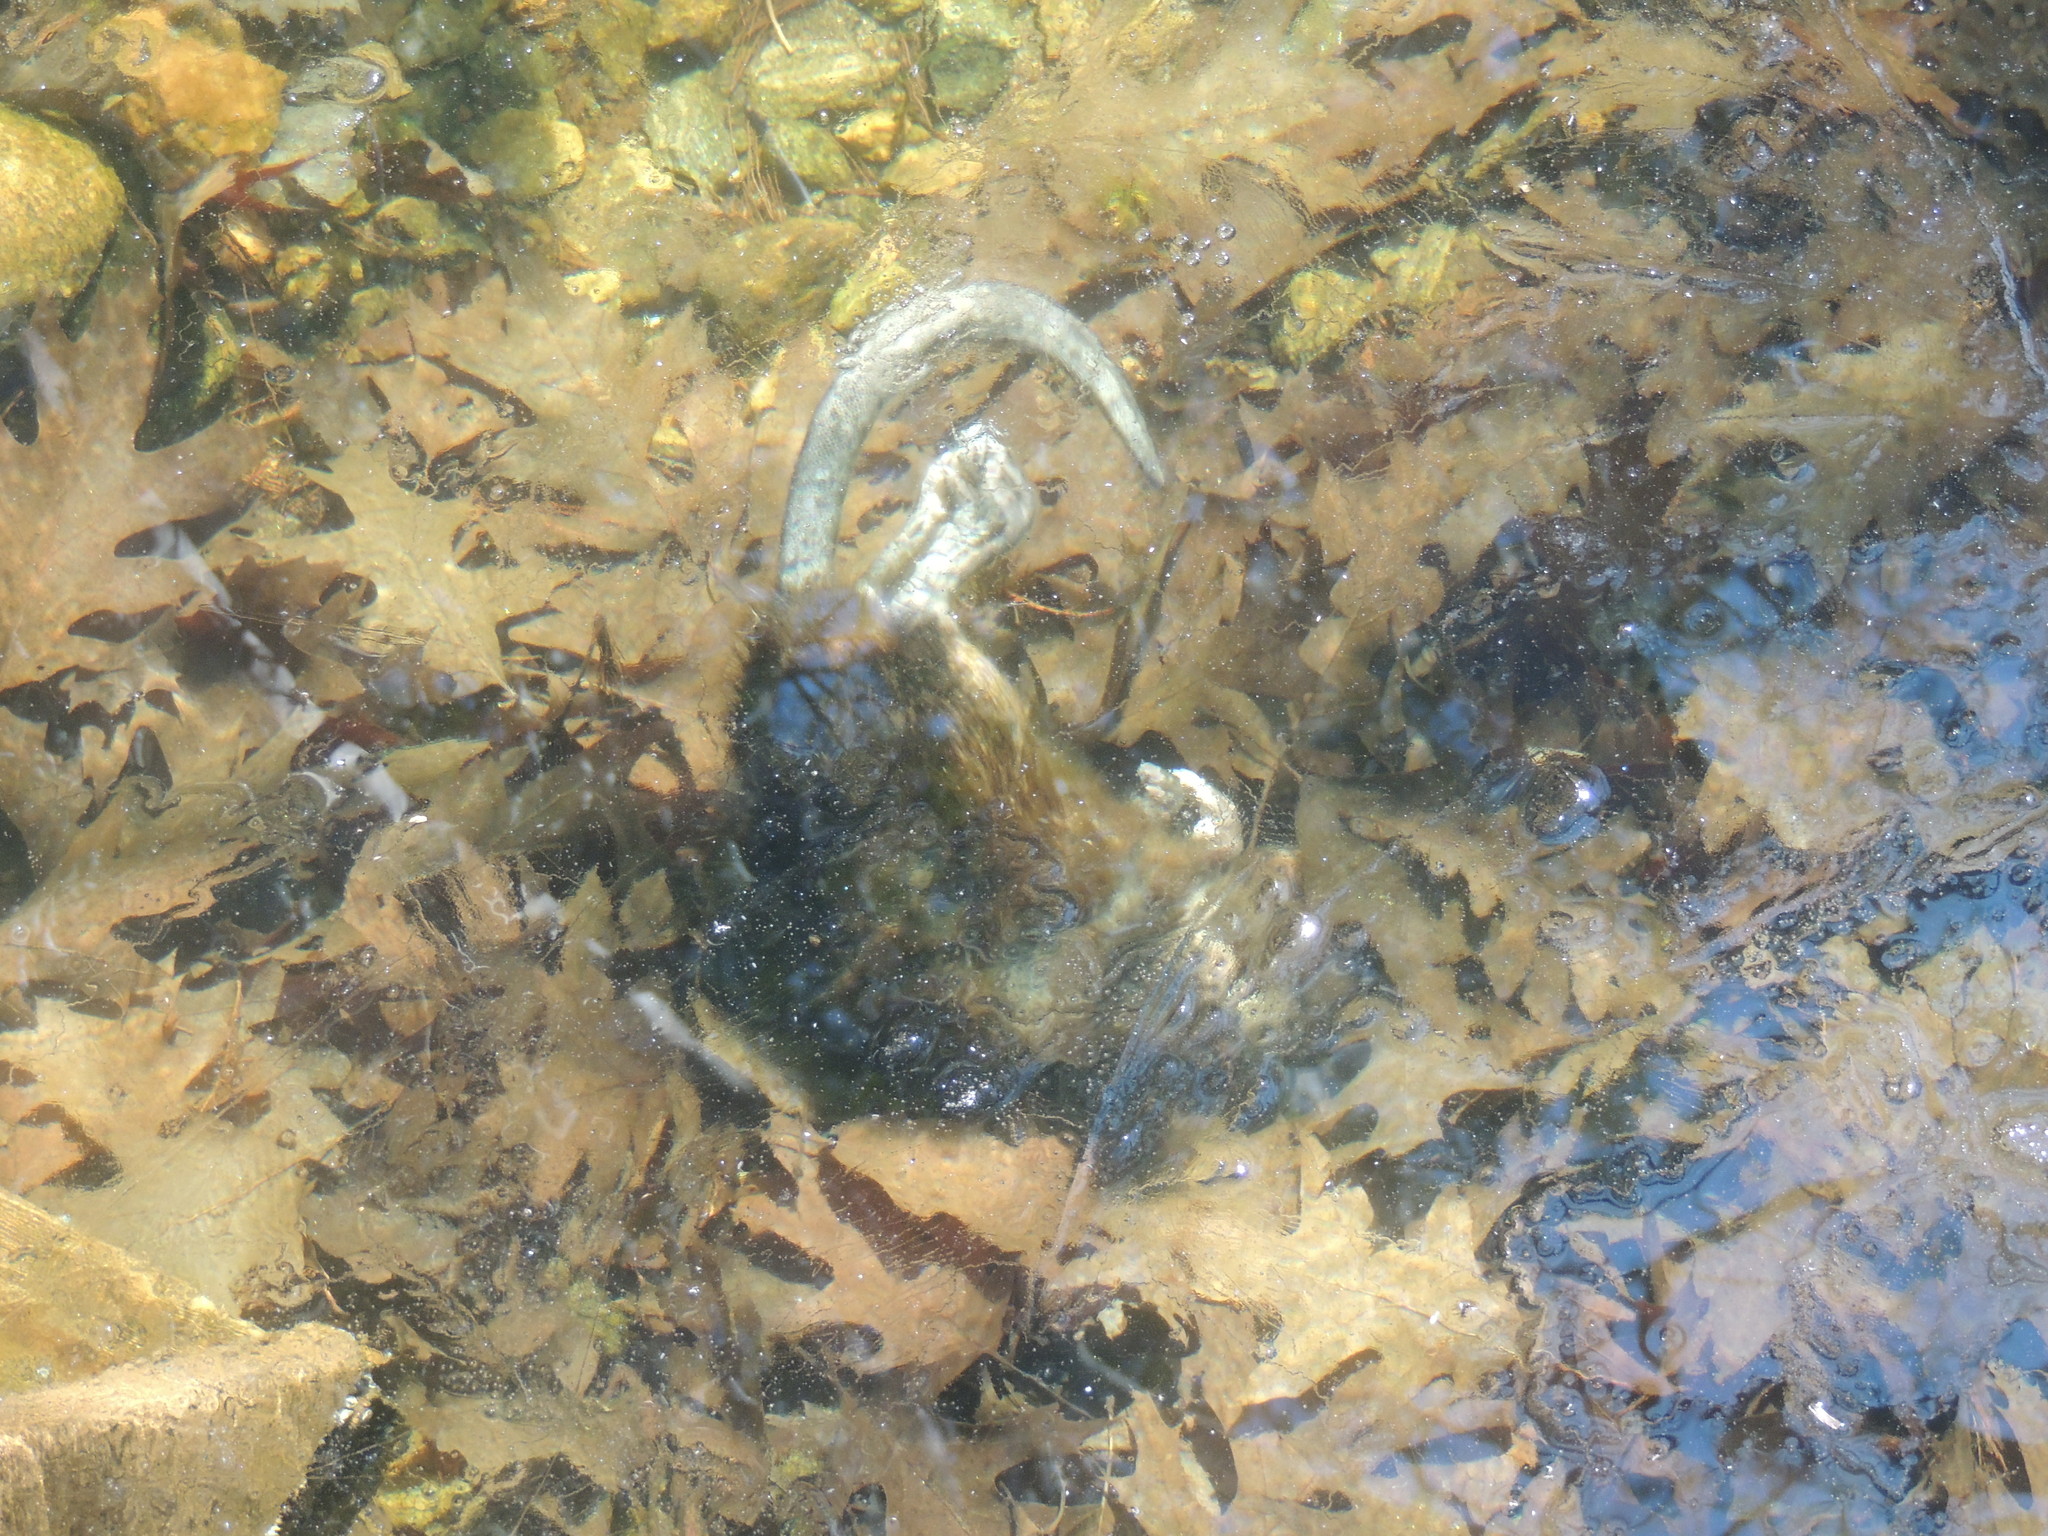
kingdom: Animalia
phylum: Chordata
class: Mammalia
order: Rodentia
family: Cricetidae
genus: Ondatra
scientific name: Ondatra zibethicus
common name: Muskrat
